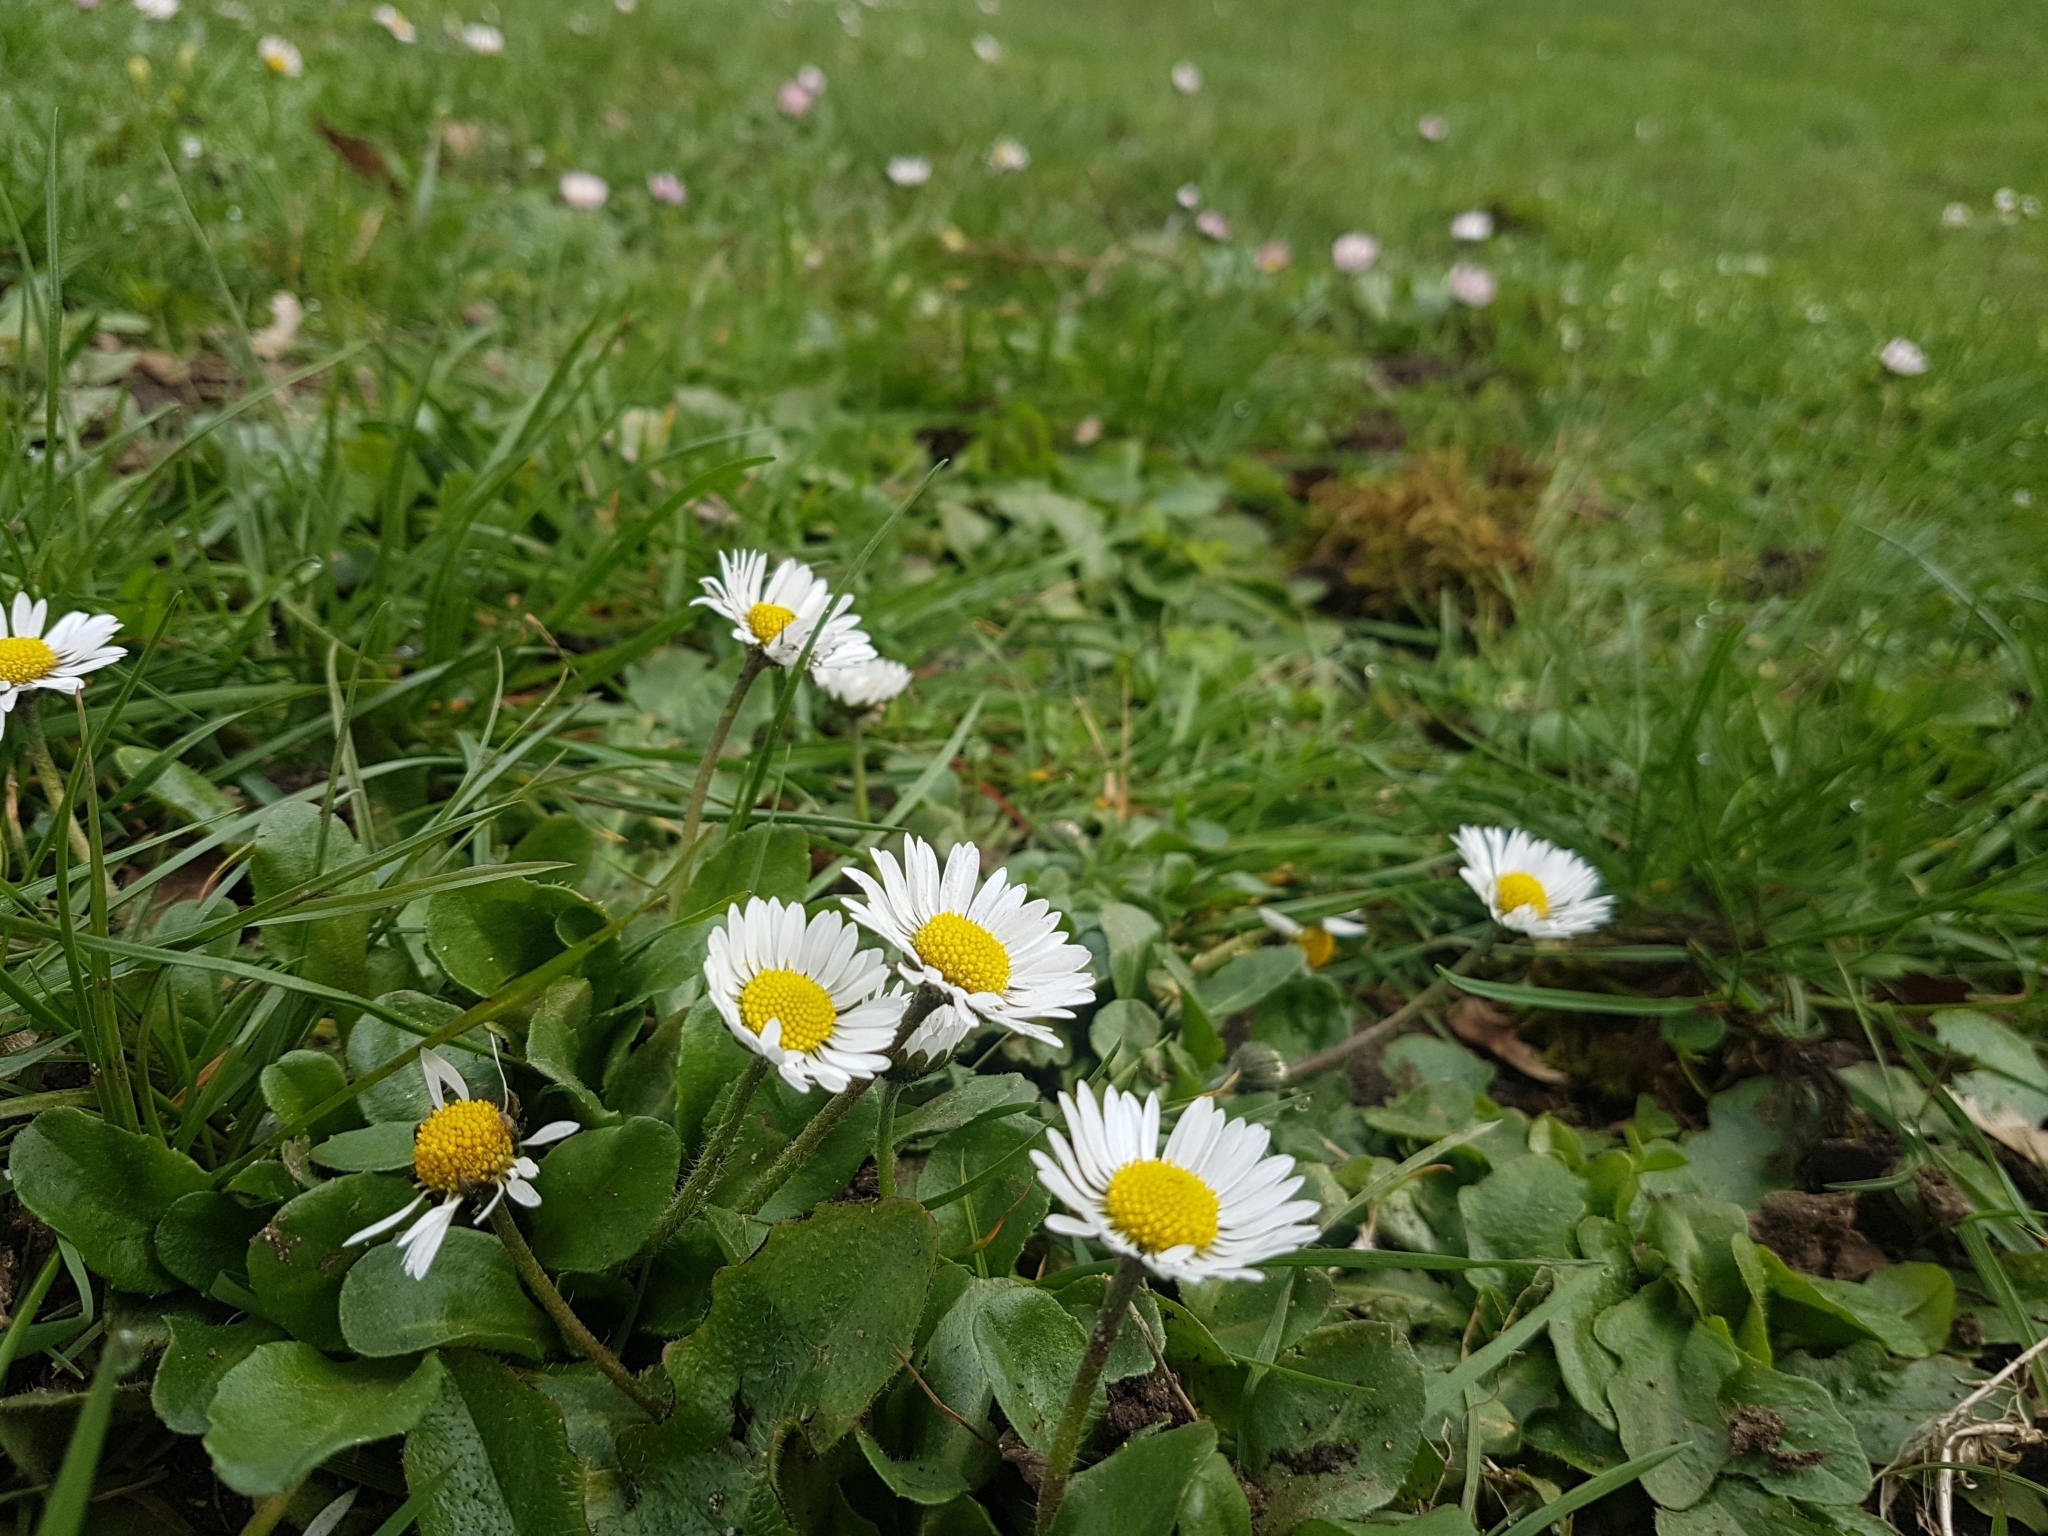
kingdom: Plantae
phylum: Tracheophyta
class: Magnoliopsida
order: Asterales
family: Asteraceae
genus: Bellis
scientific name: Bellis perennis
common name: Lawndaisy
